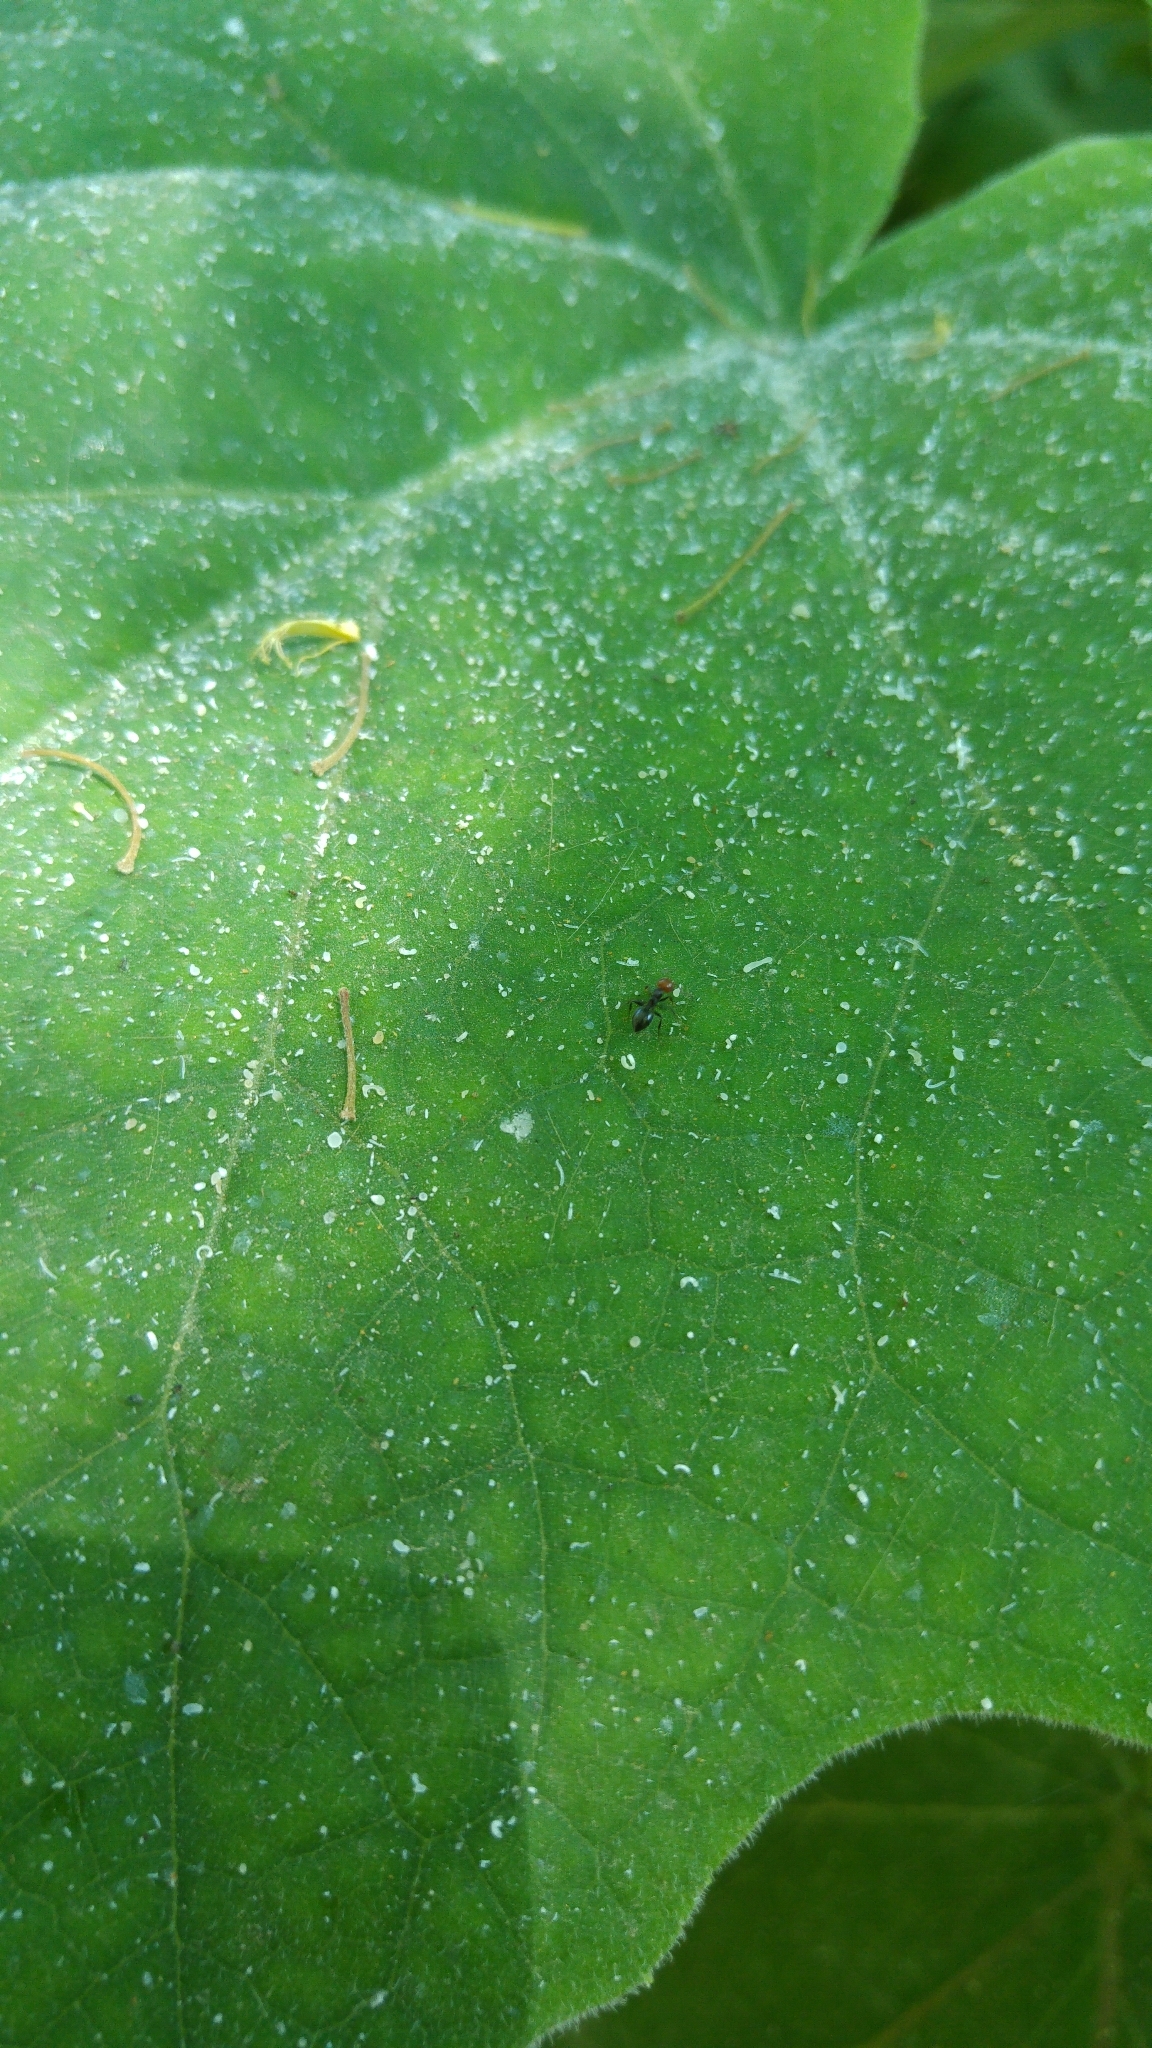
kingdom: Animalia
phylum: Arthropoda
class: Insecta
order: Hymenoptera
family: Formicidae
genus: Crematogaster
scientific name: Crematogaster scutellaris
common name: Fourmi du liège
